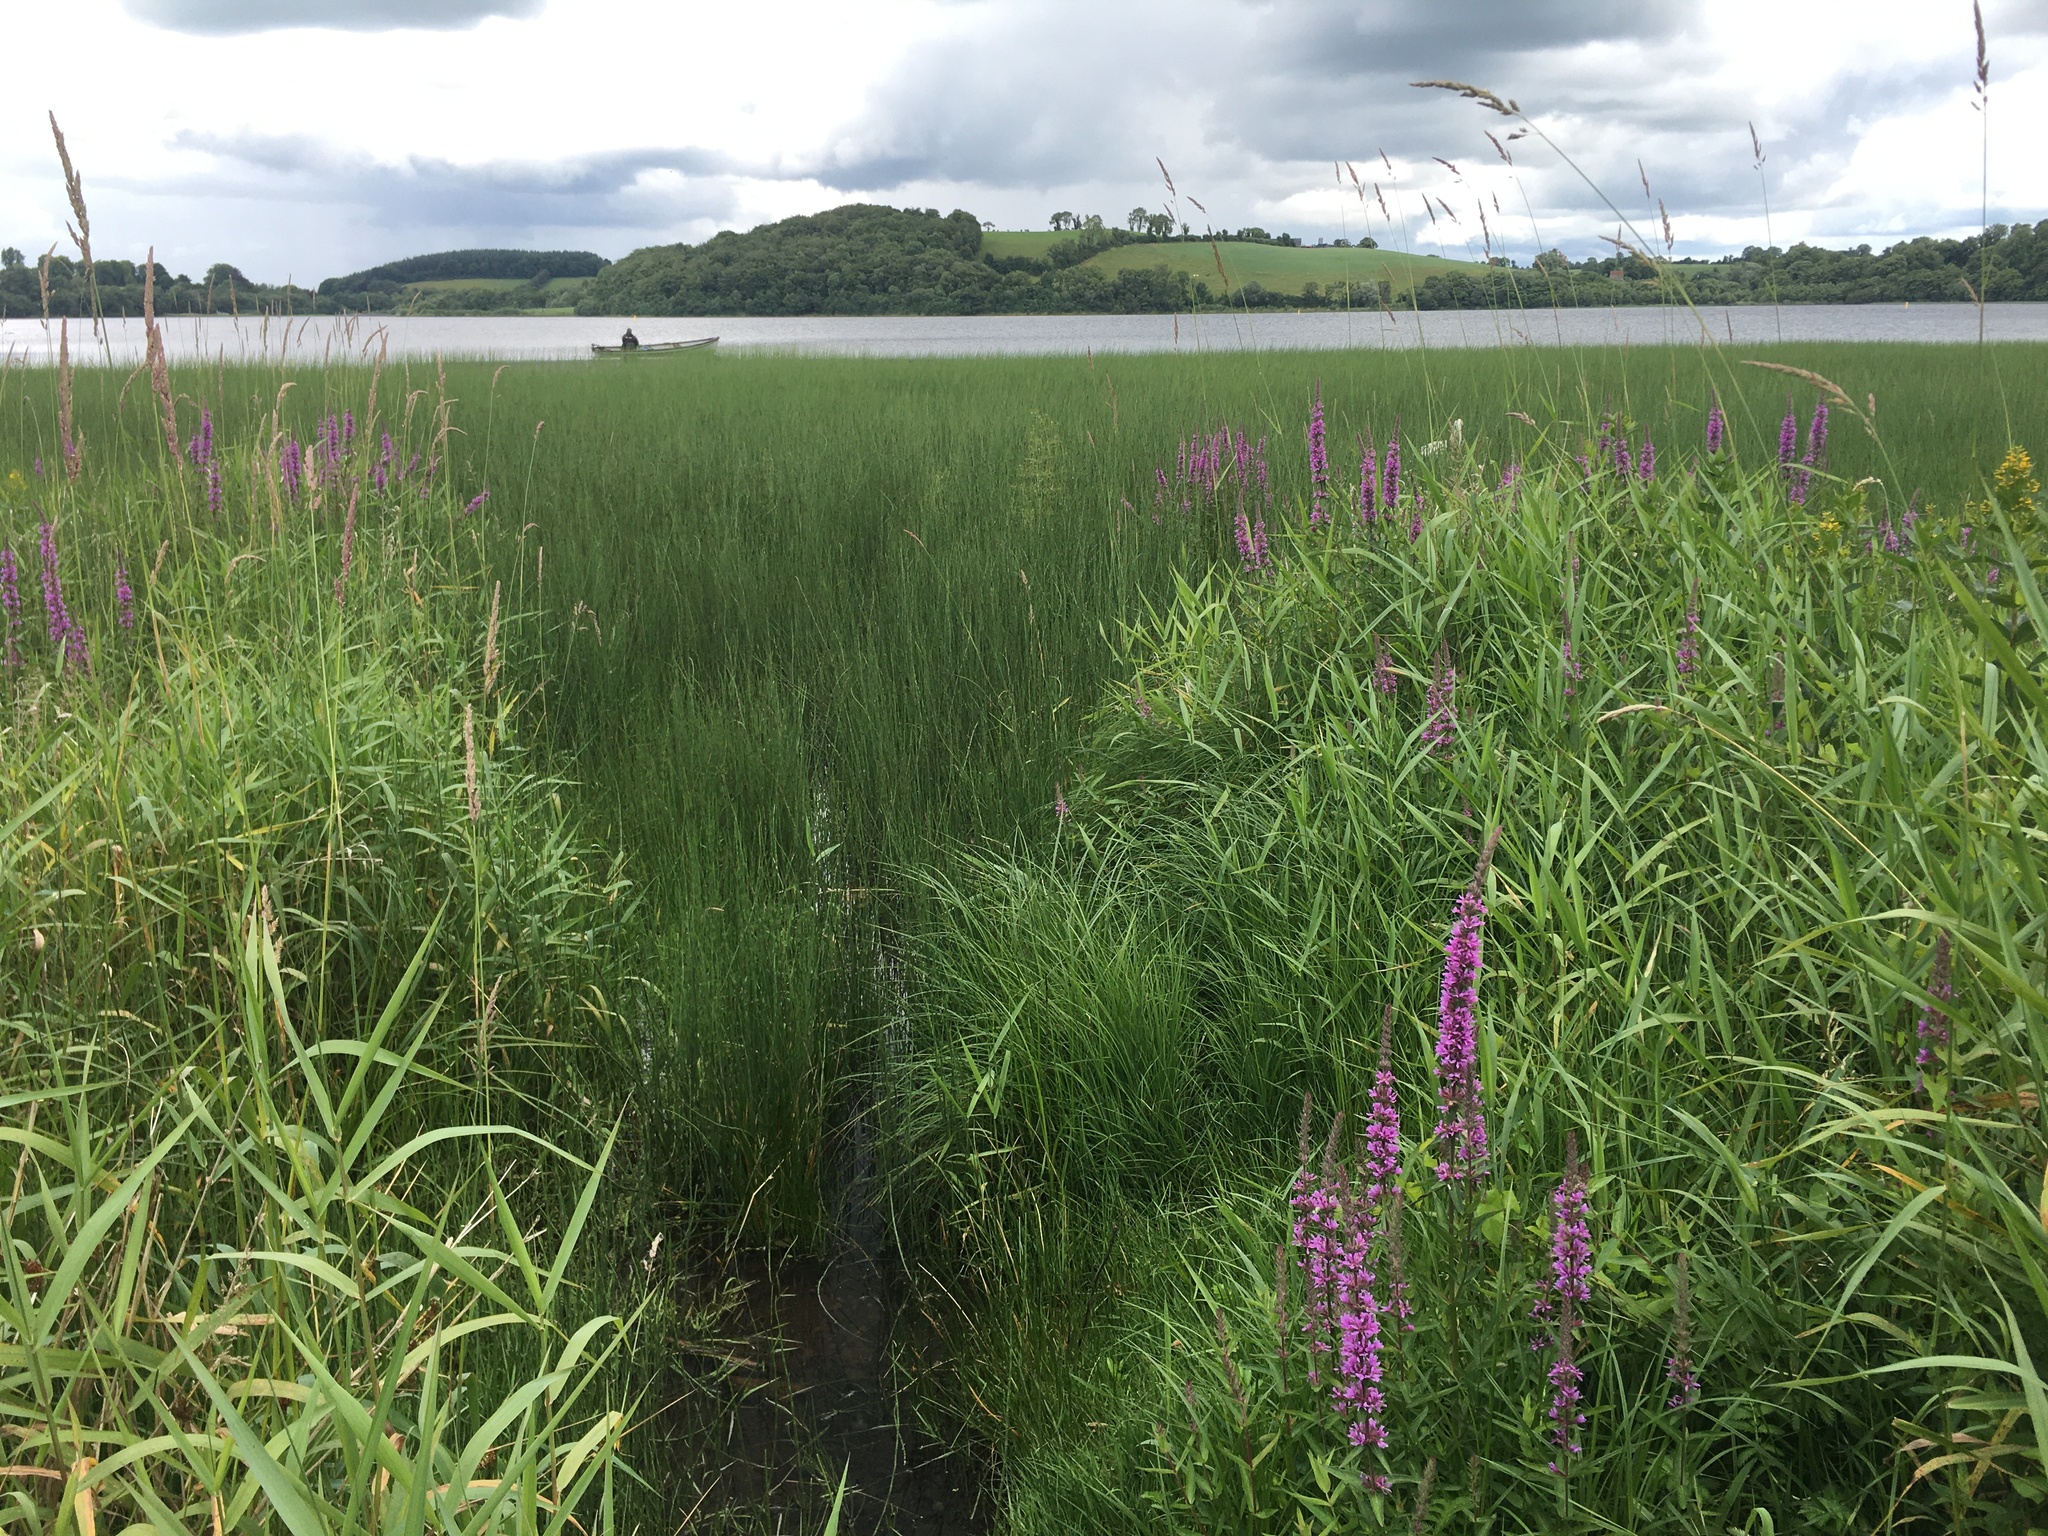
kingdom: Plantae
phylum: Tracheophyta
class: Magnoliopsida
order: Myrtales
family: Lythraceae
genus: Lythrum
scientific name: Lythrum salicaria
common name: Purple loosestrife
